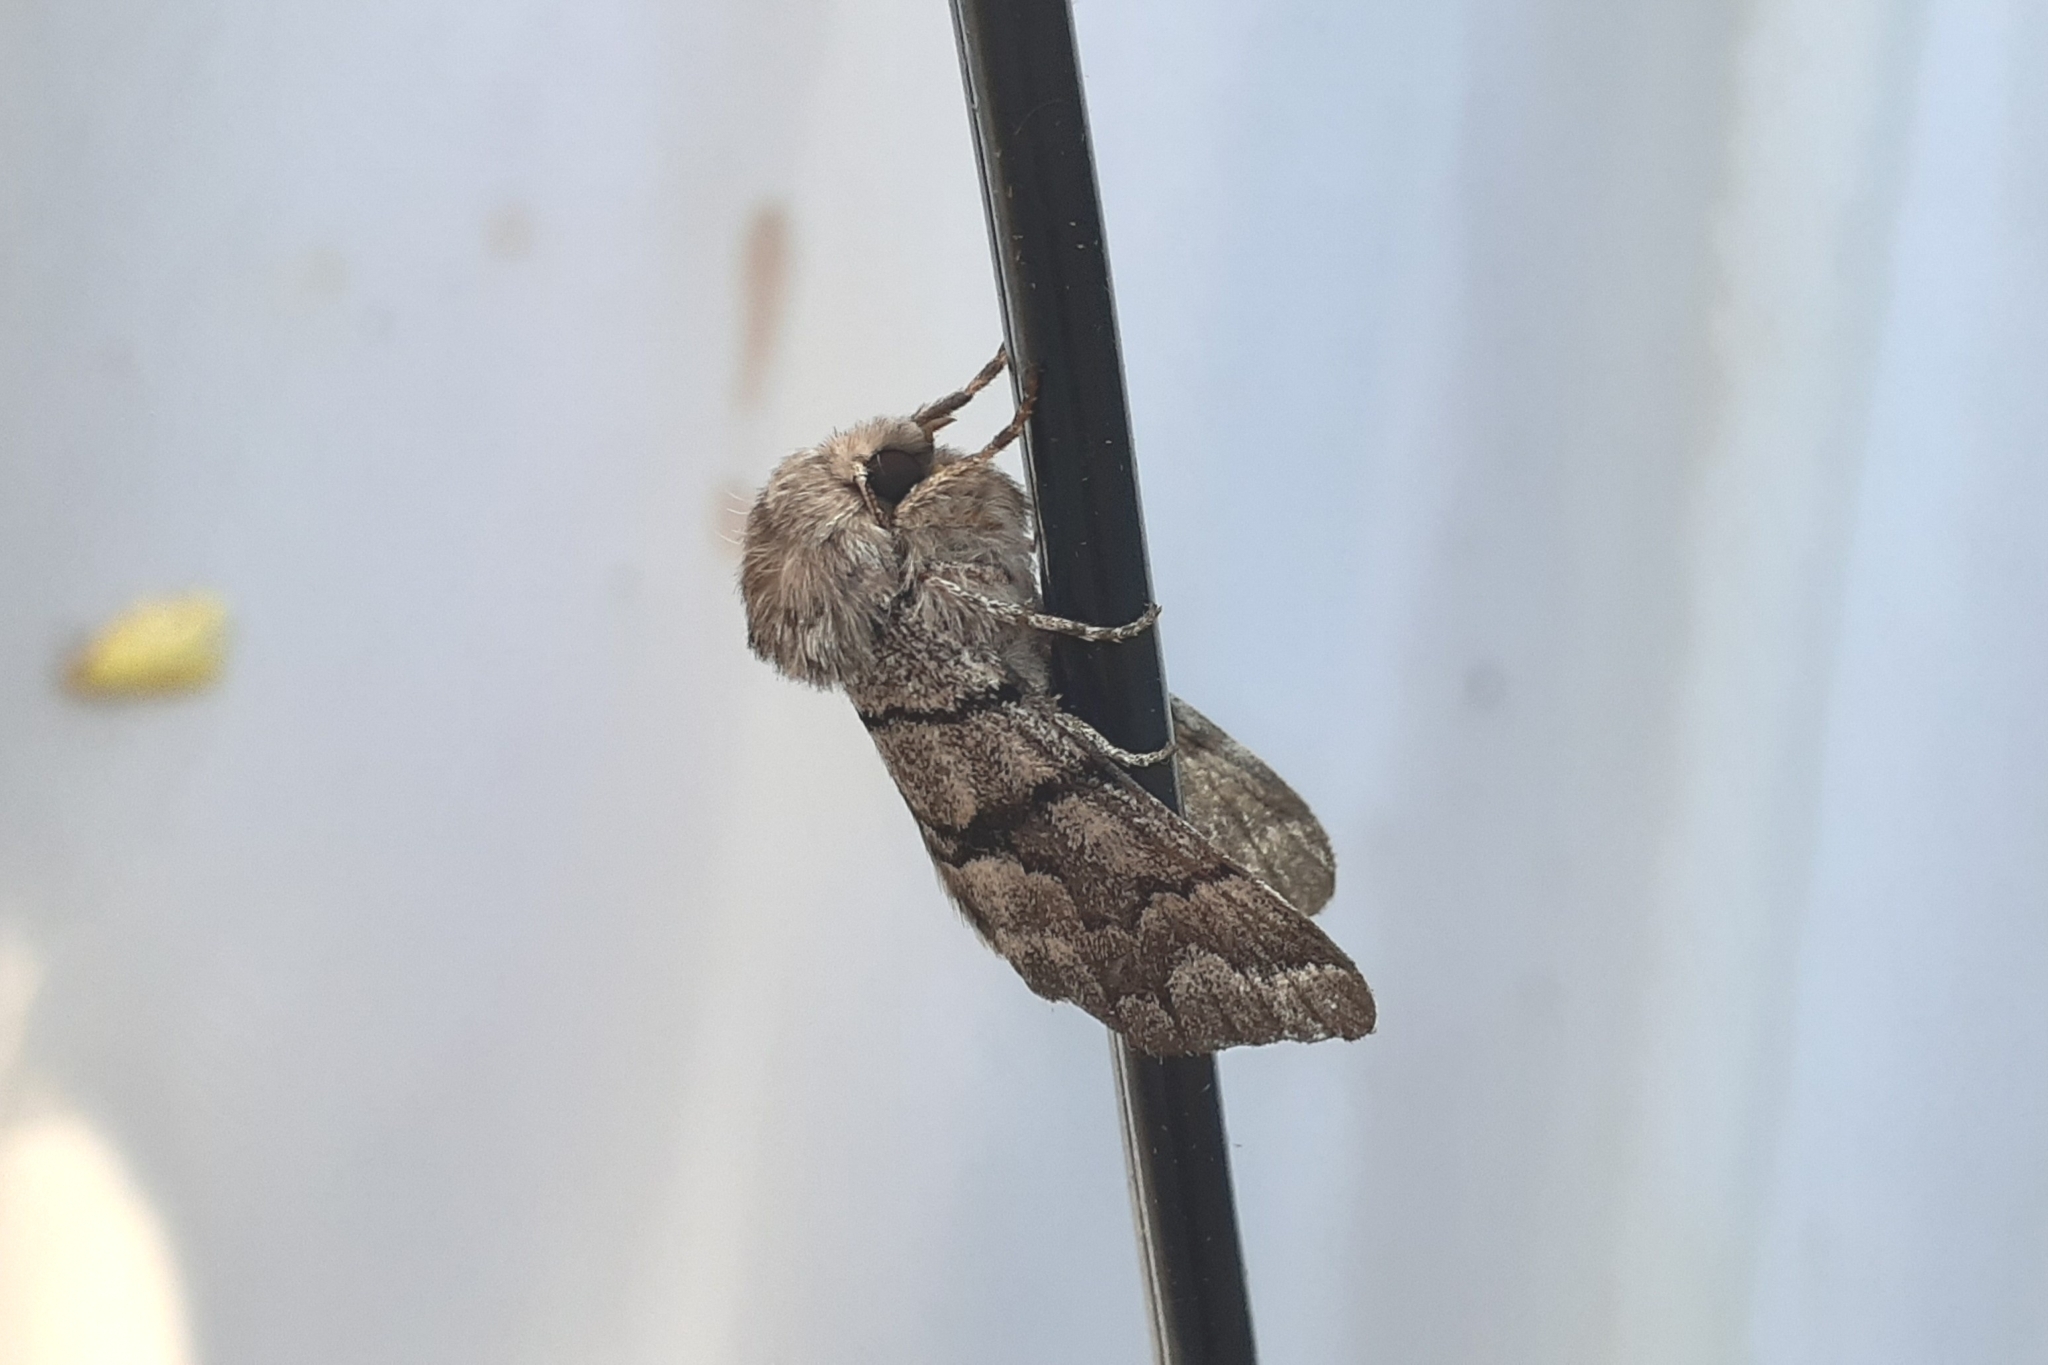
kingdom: Animalia
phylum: Arthropoda
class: Insecta
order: Lepidoptera
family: Noctuidae
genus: Panthea
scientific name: Panthea furcilla
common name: Eastern panthea moth
